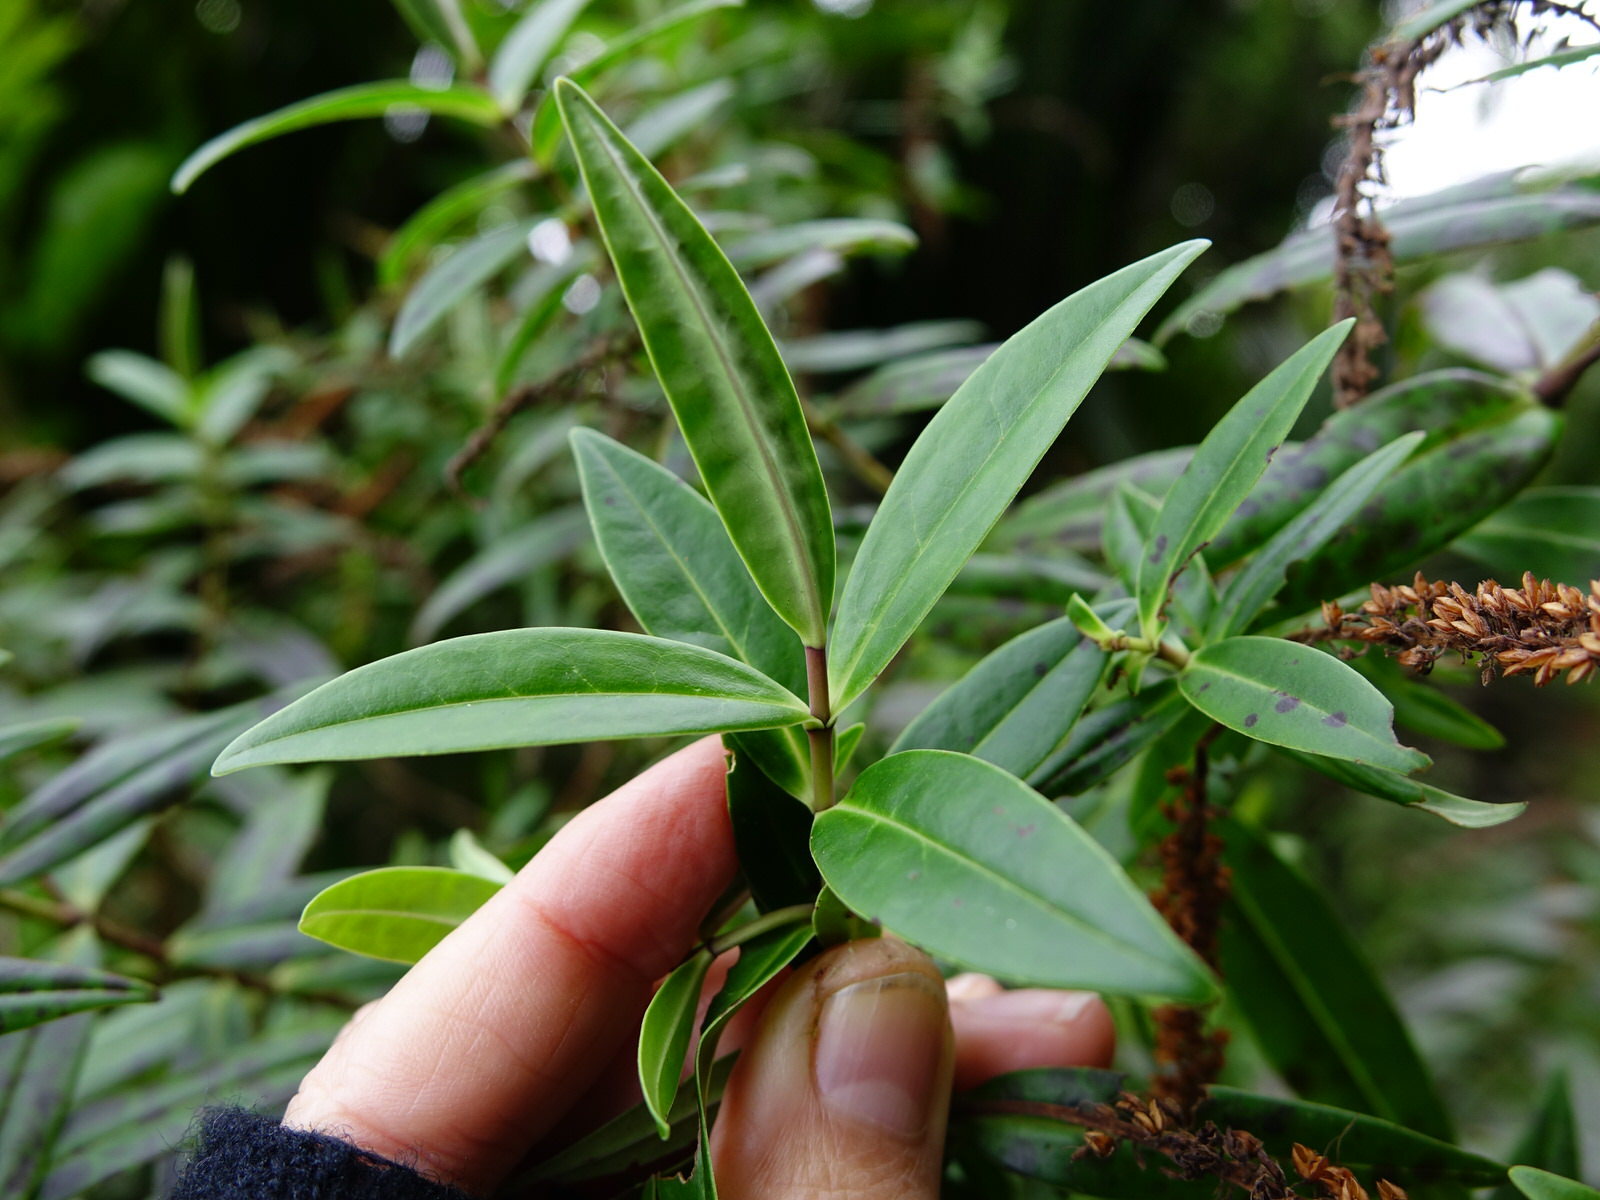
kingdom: Plantae
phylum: Tracheophyta
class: Magnoliopsida
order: Lamiales
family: Plantaginaceae
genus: Veronica
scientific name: Veronica macrocarpa
